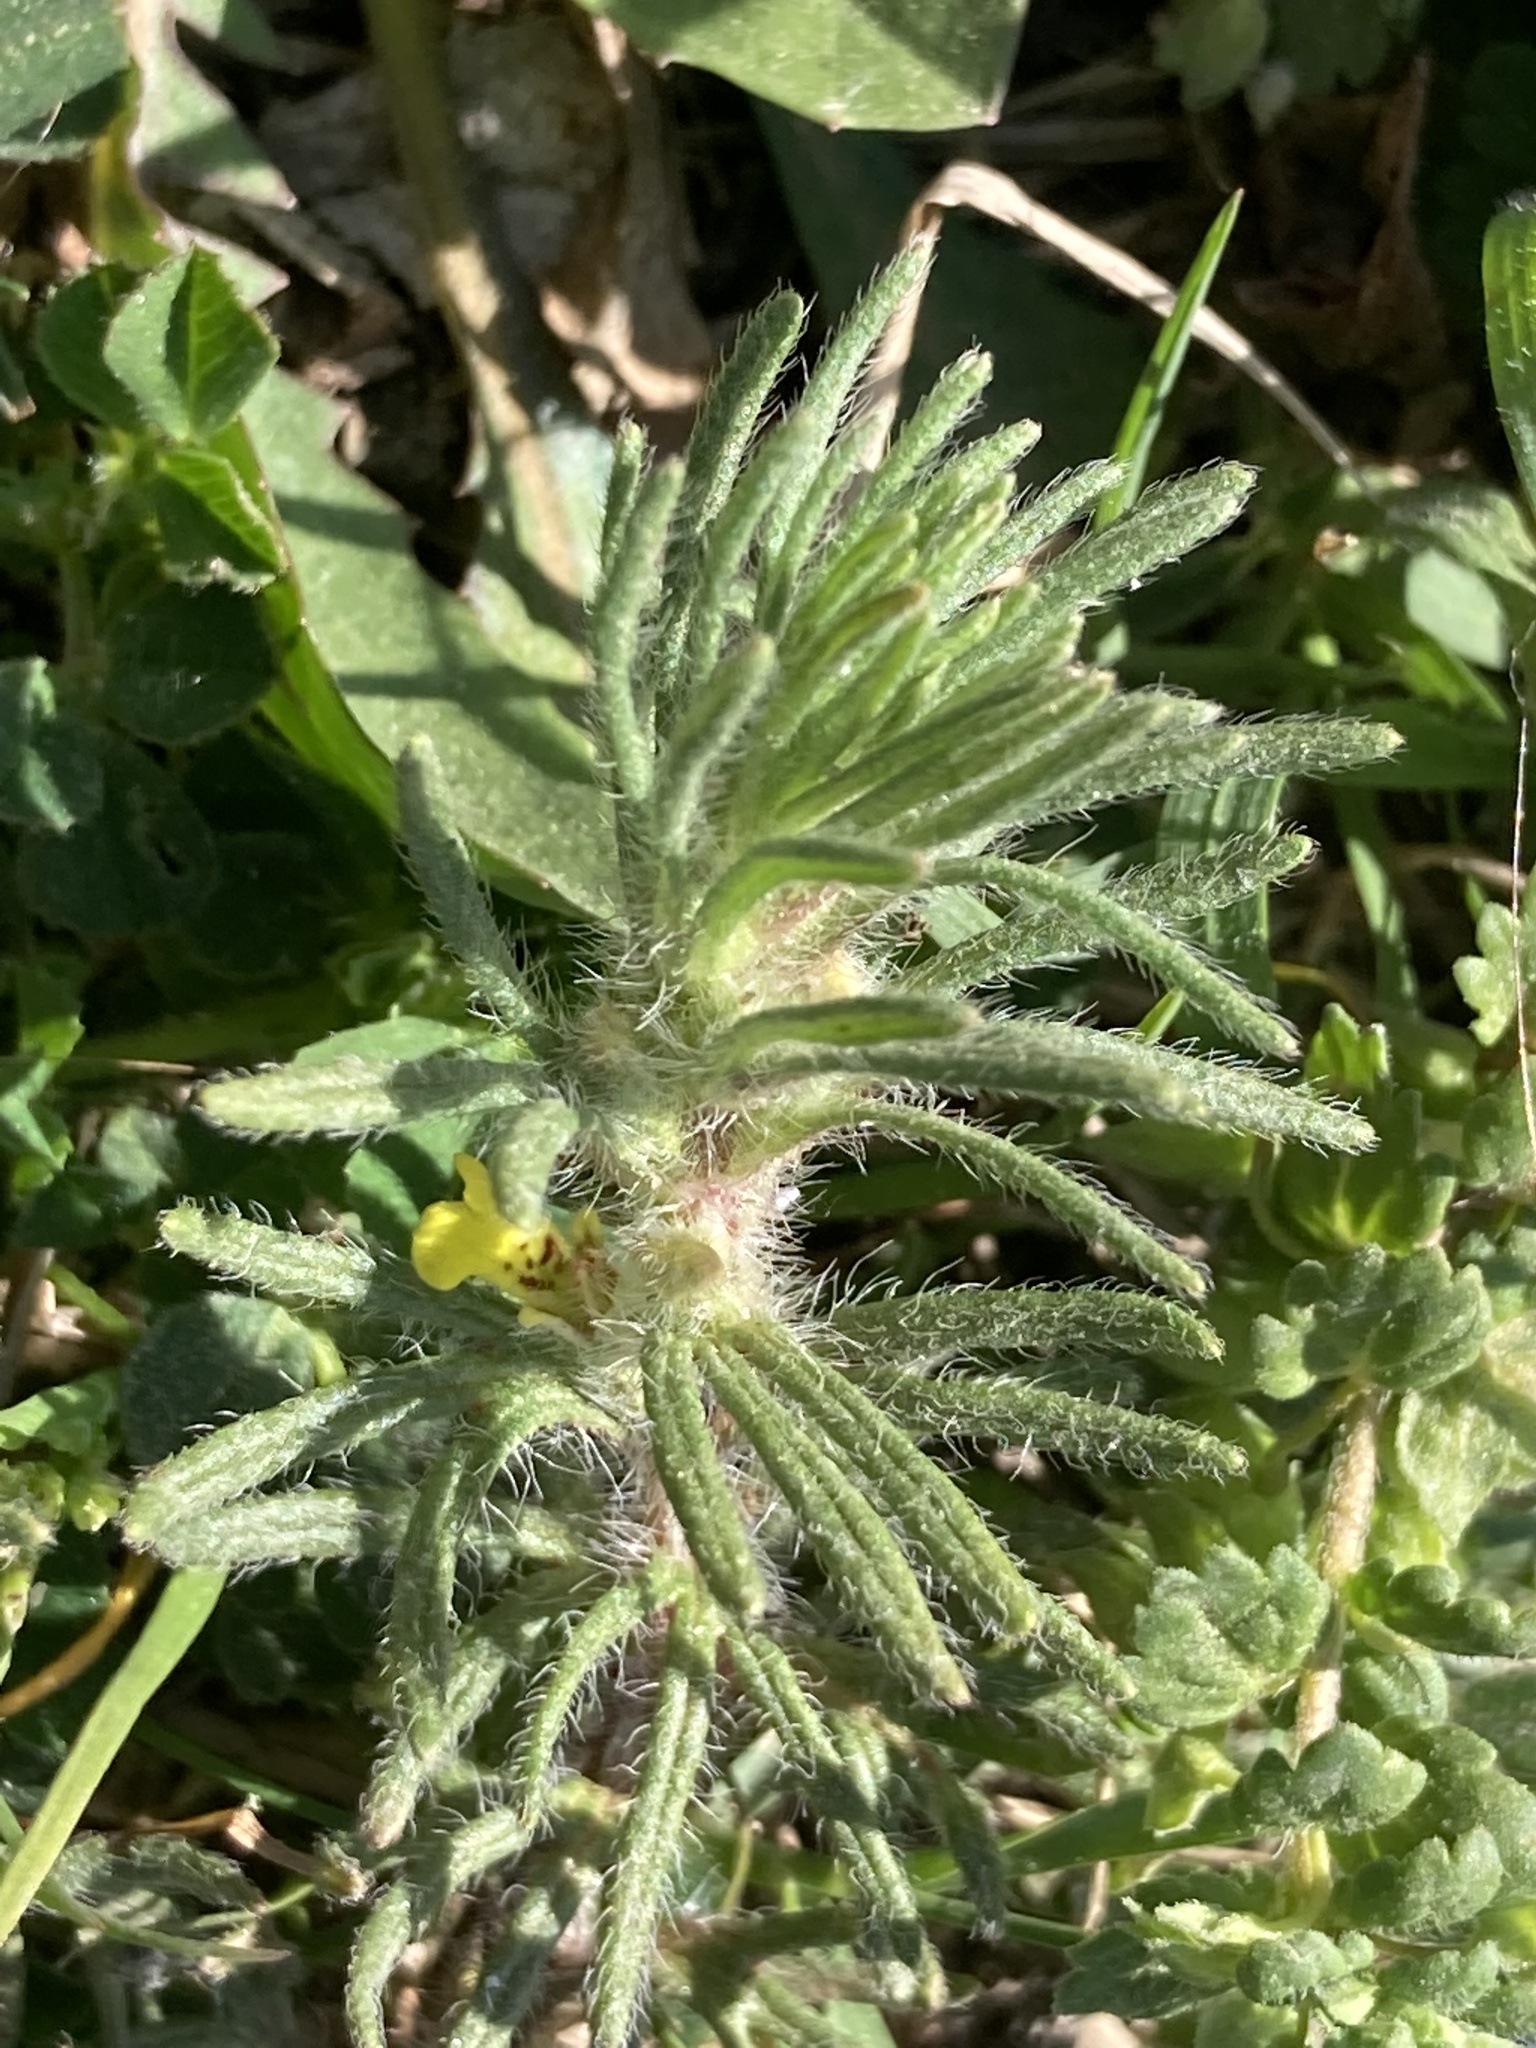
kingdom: Plantae
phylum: Tracheophyta
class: Magnoliopsida
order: Lamiales
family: Lamiaceae
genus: Ajuga
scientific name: Ajuga chamaepitys
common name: Ground-pine
